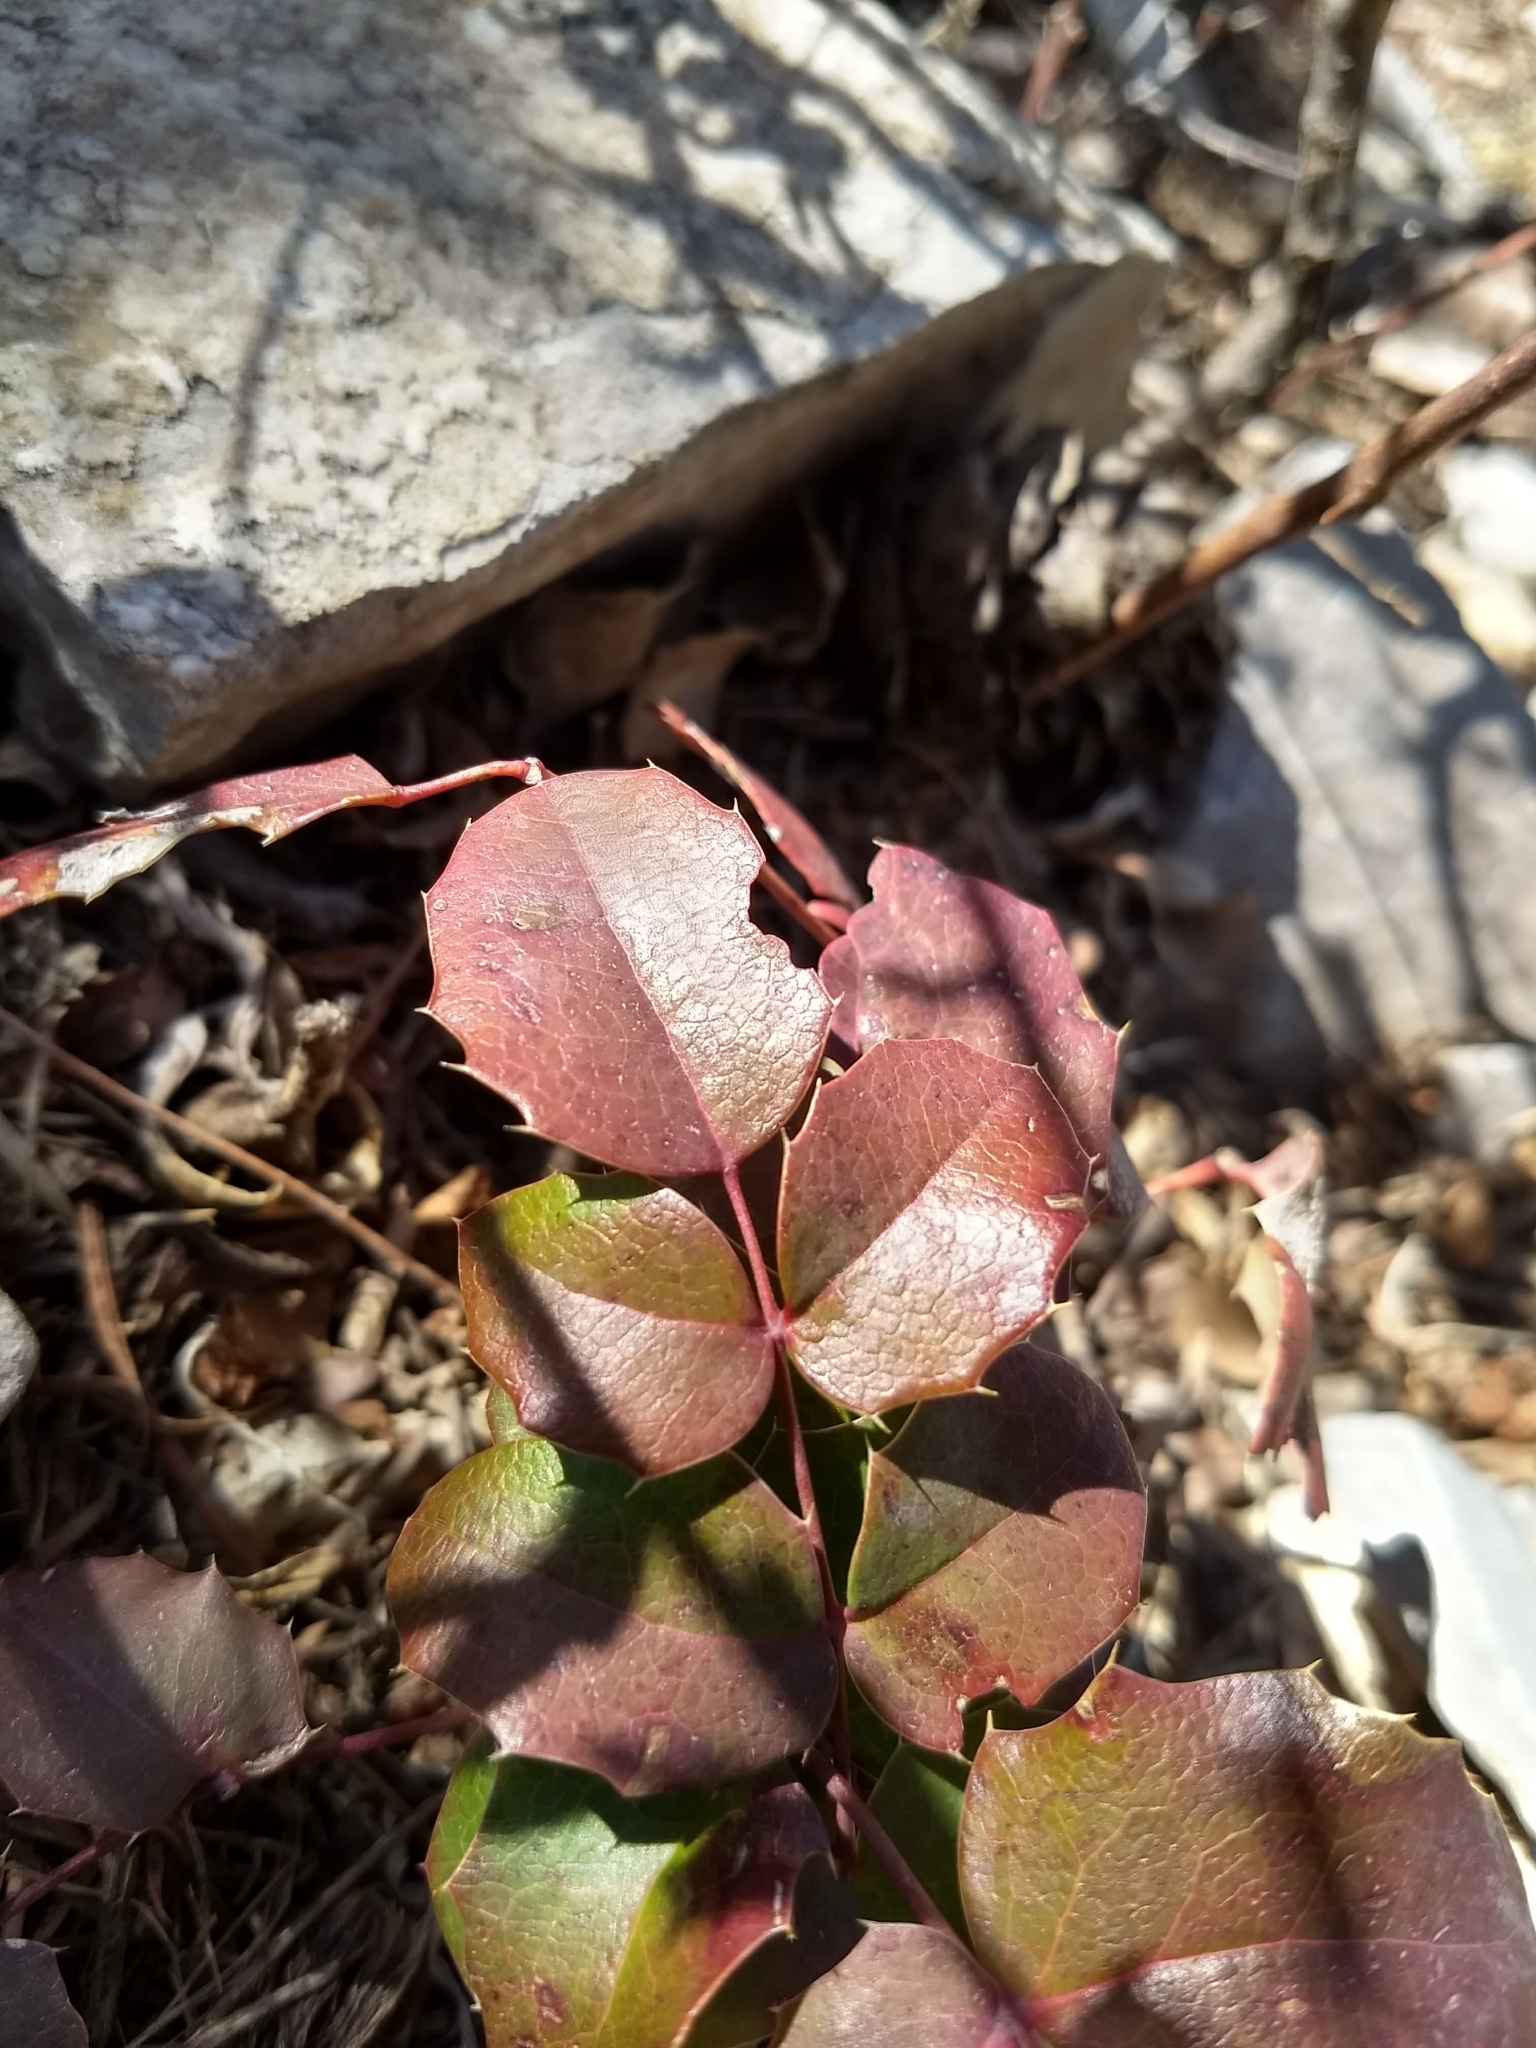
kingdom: Plantae
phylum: Tracheophyta
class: Magnoliopsida
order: Ranunculales
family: Berberidaceae
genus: Mahonia
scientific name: Mahonia repens
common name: Creeping oregon-grape
